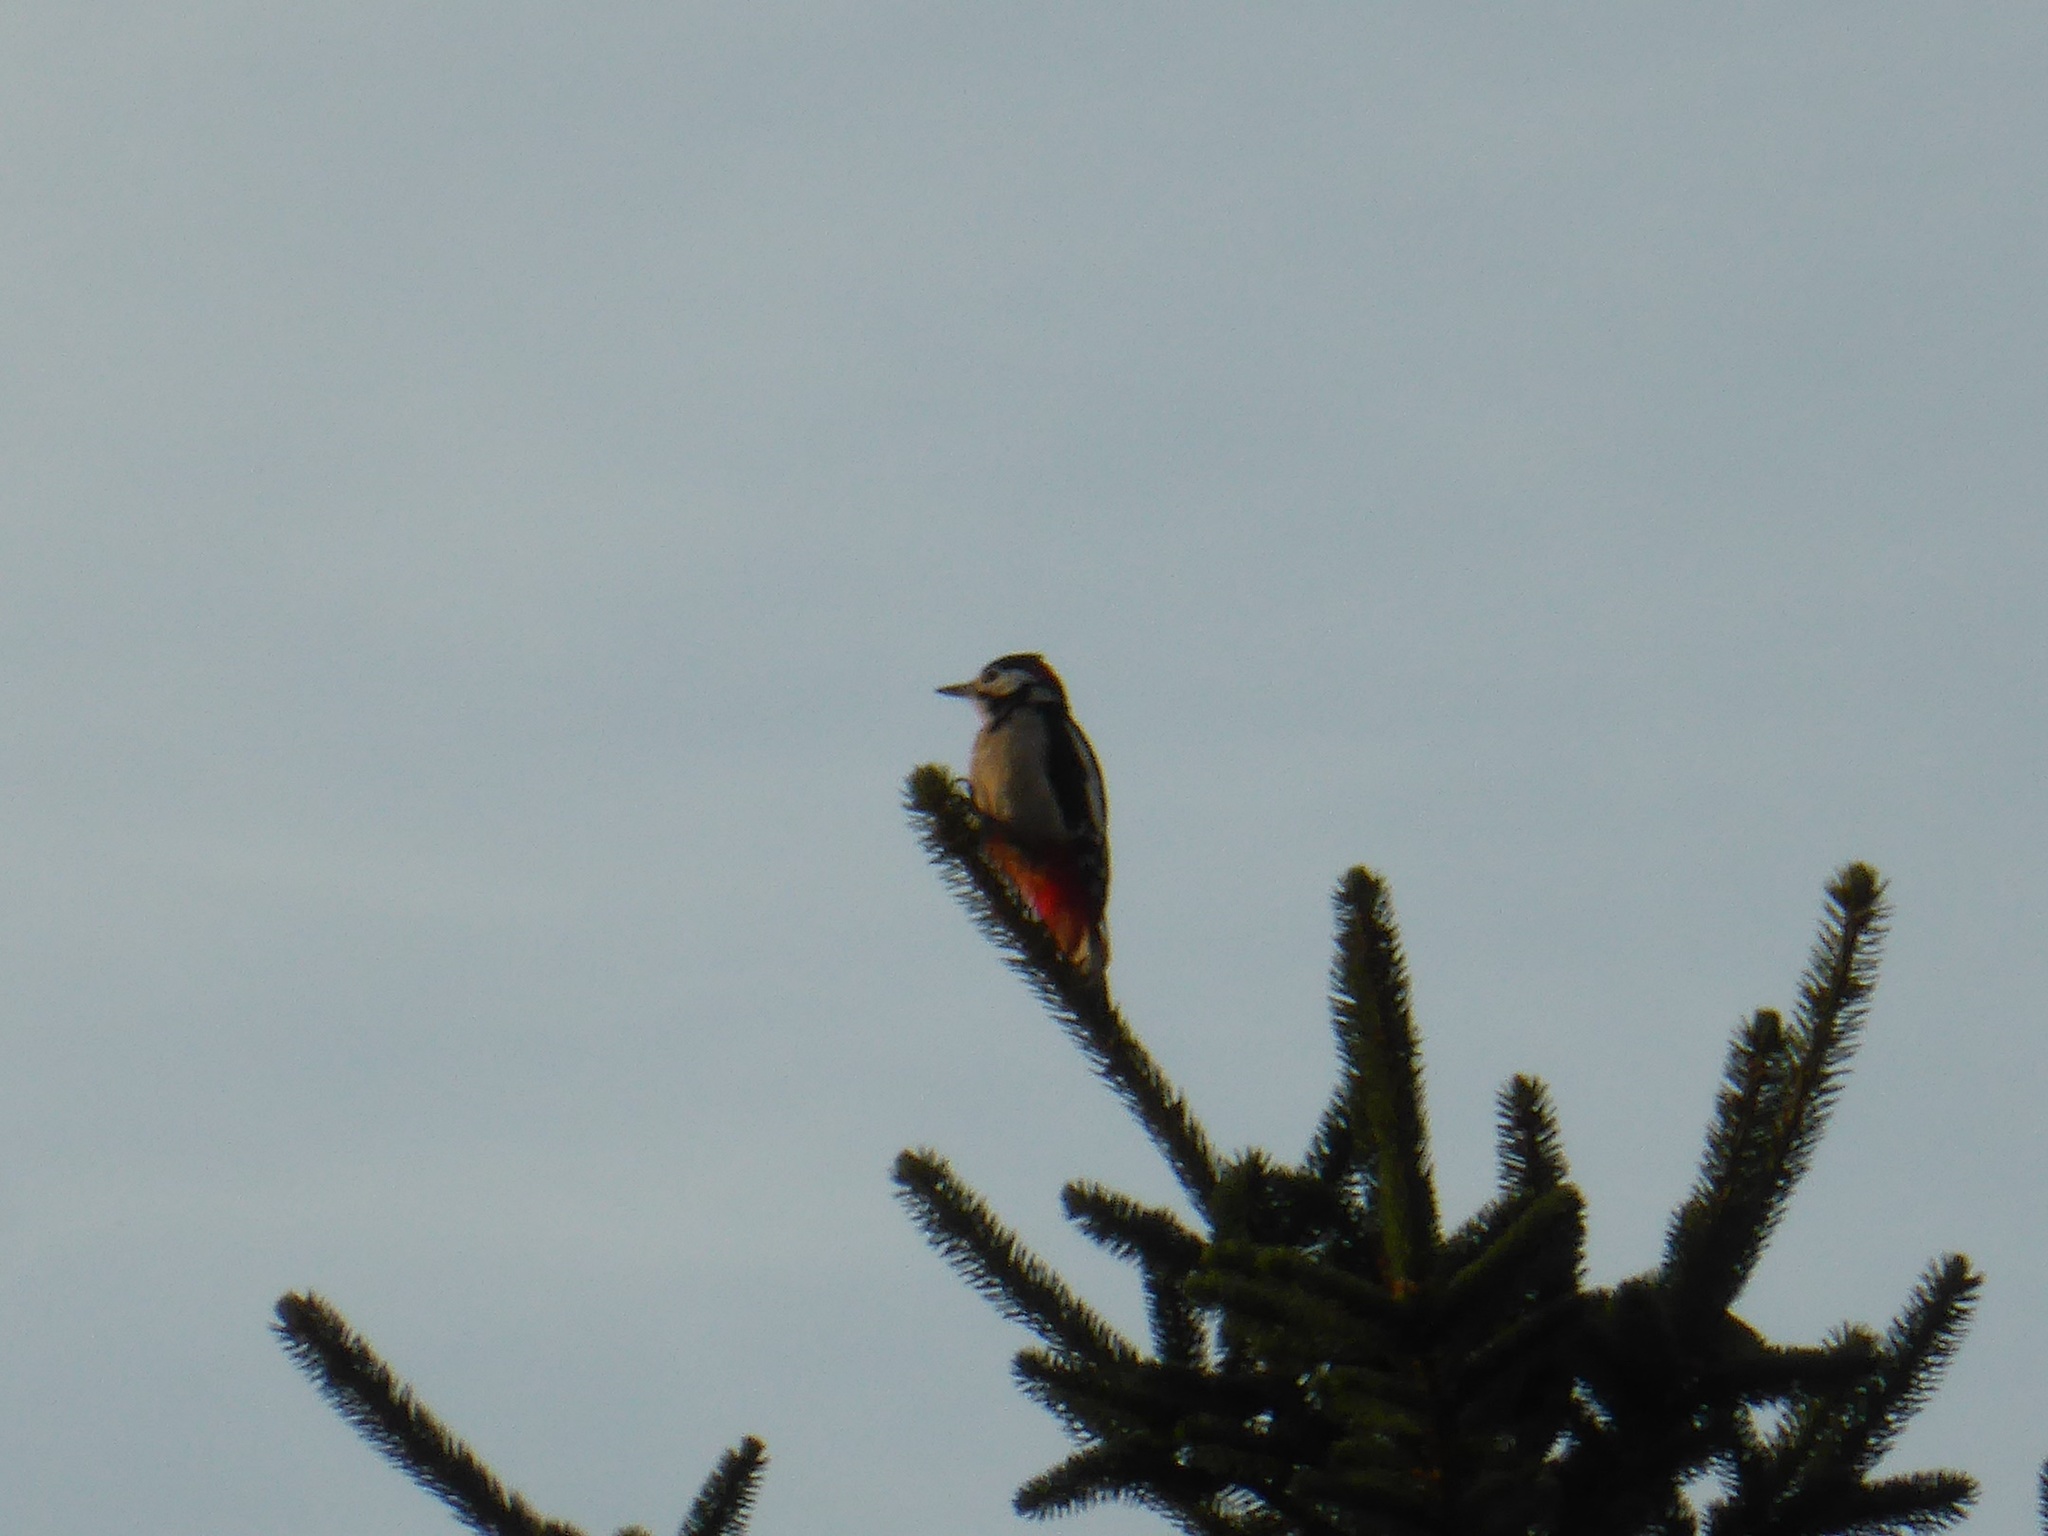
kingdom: Animalia
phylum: Chordata
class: Aves
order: Piciformes
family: Picidae
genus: Dendrocopos
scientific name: Dendrocopos major
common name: Great spotted woodpecker
